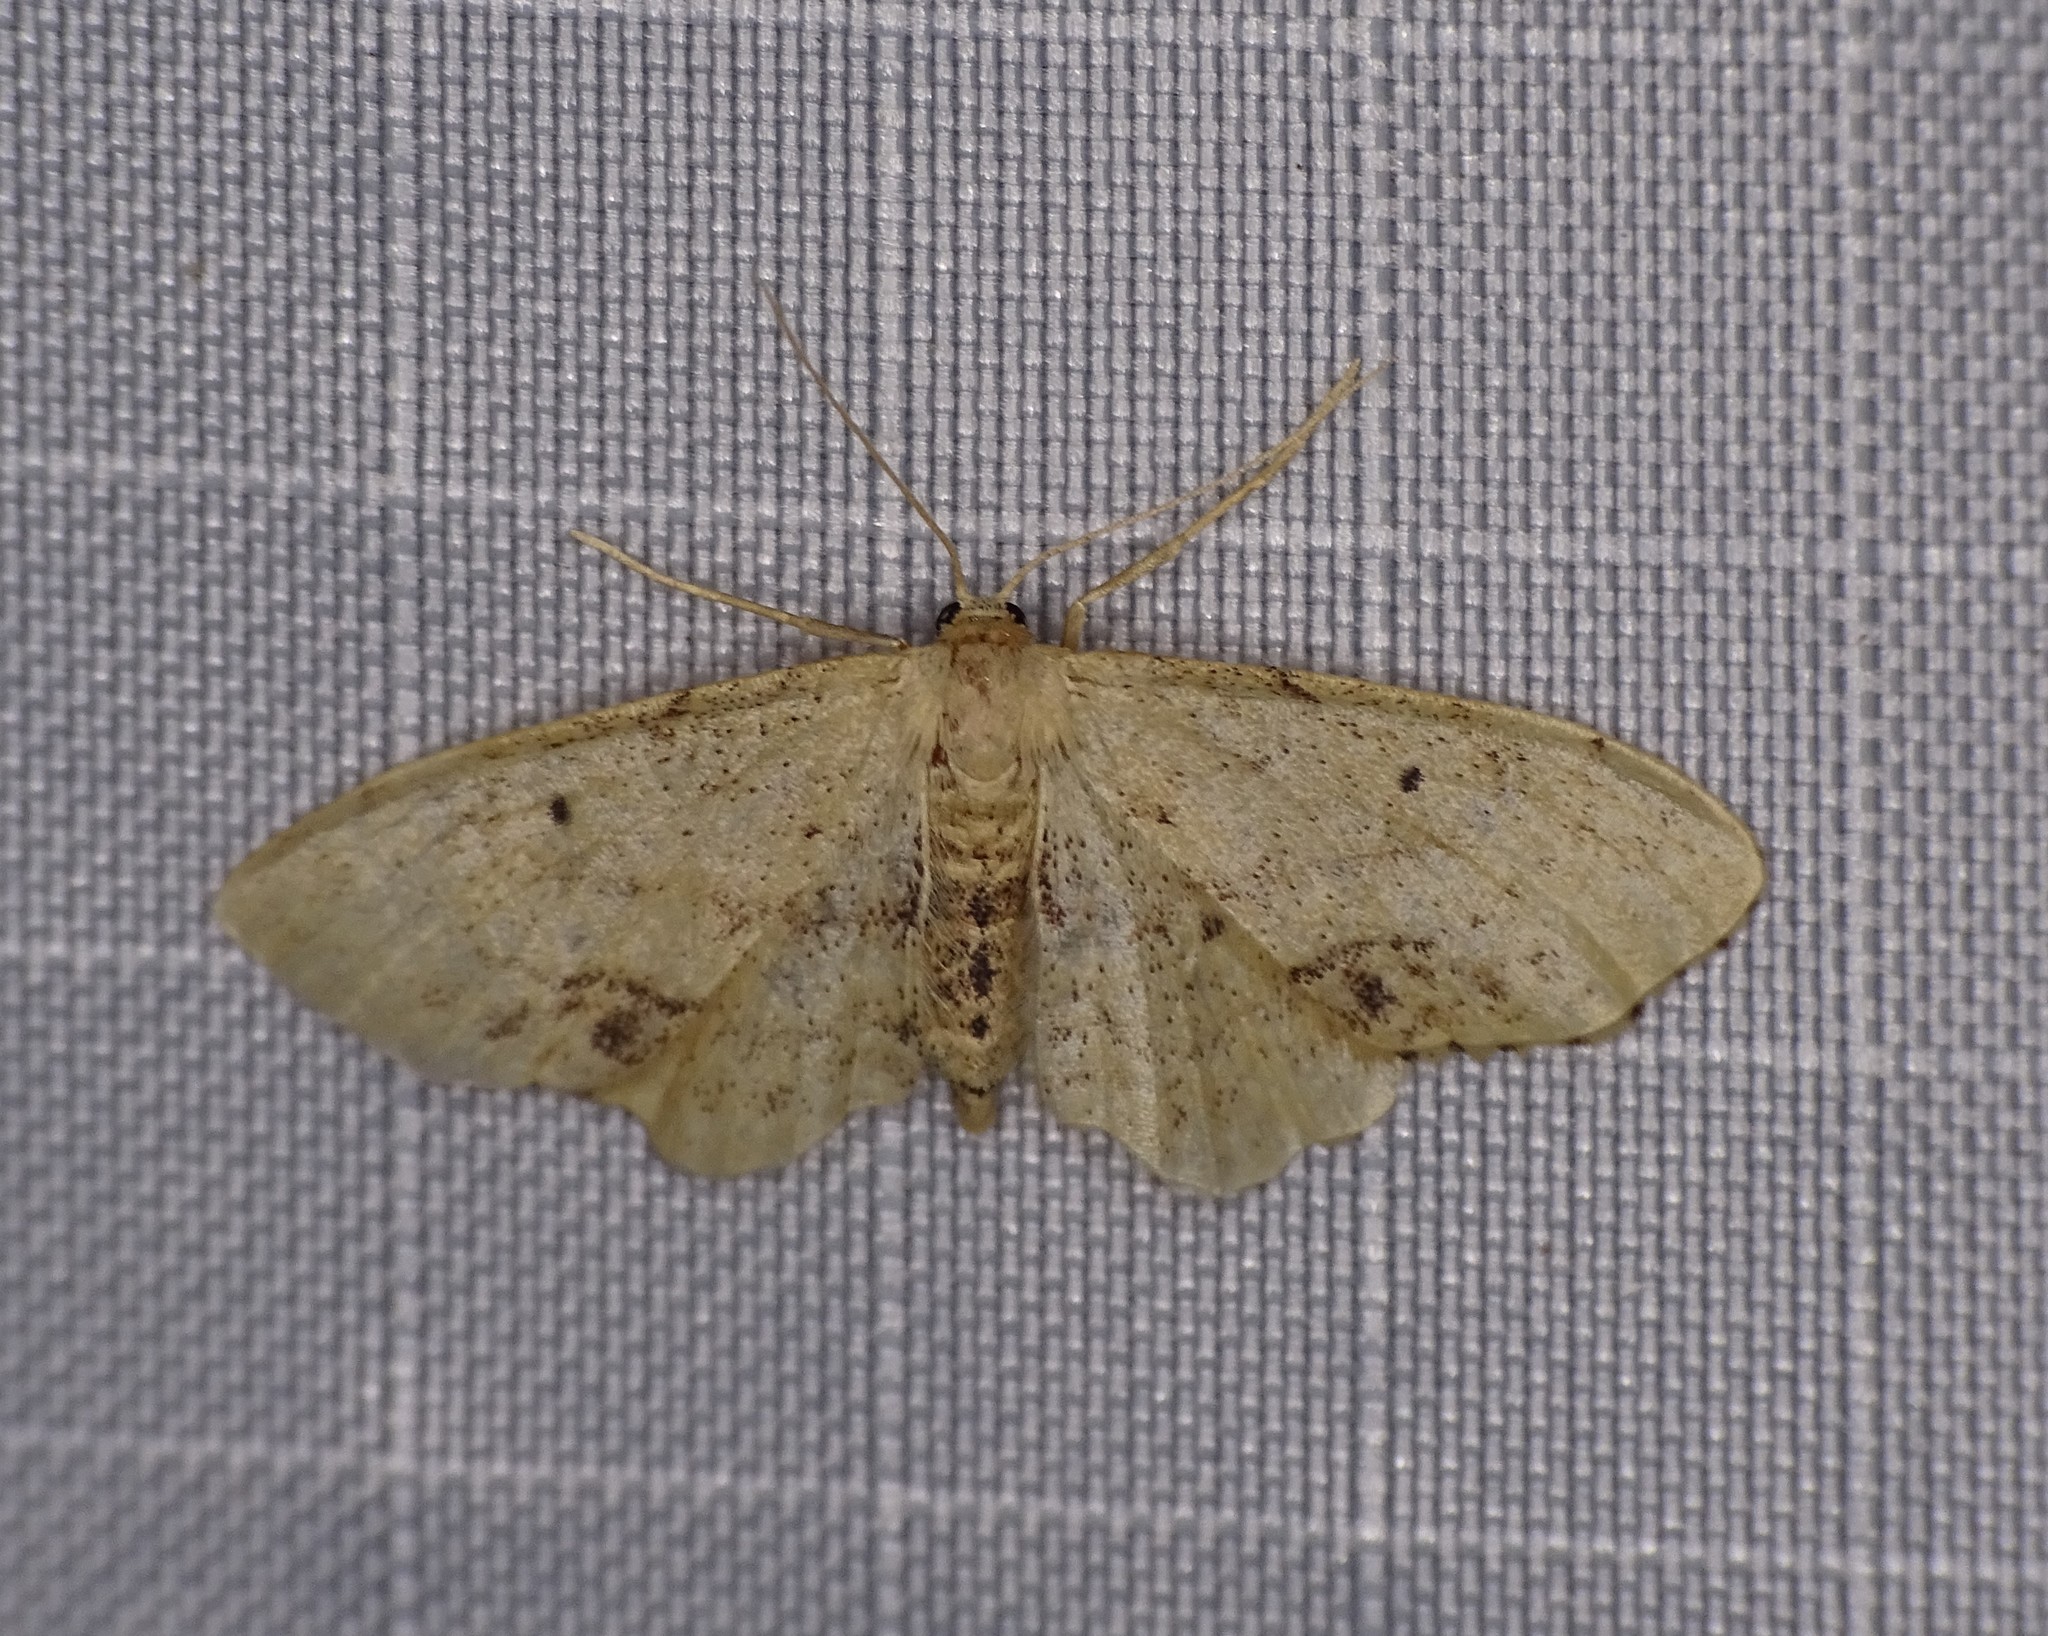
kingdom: Animalia
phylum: Arthropoda
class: Insecta
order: Lepidoptera
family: Geometridae
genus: Idaea
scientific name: Idaea dimidiata
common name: Single-dotted wave
